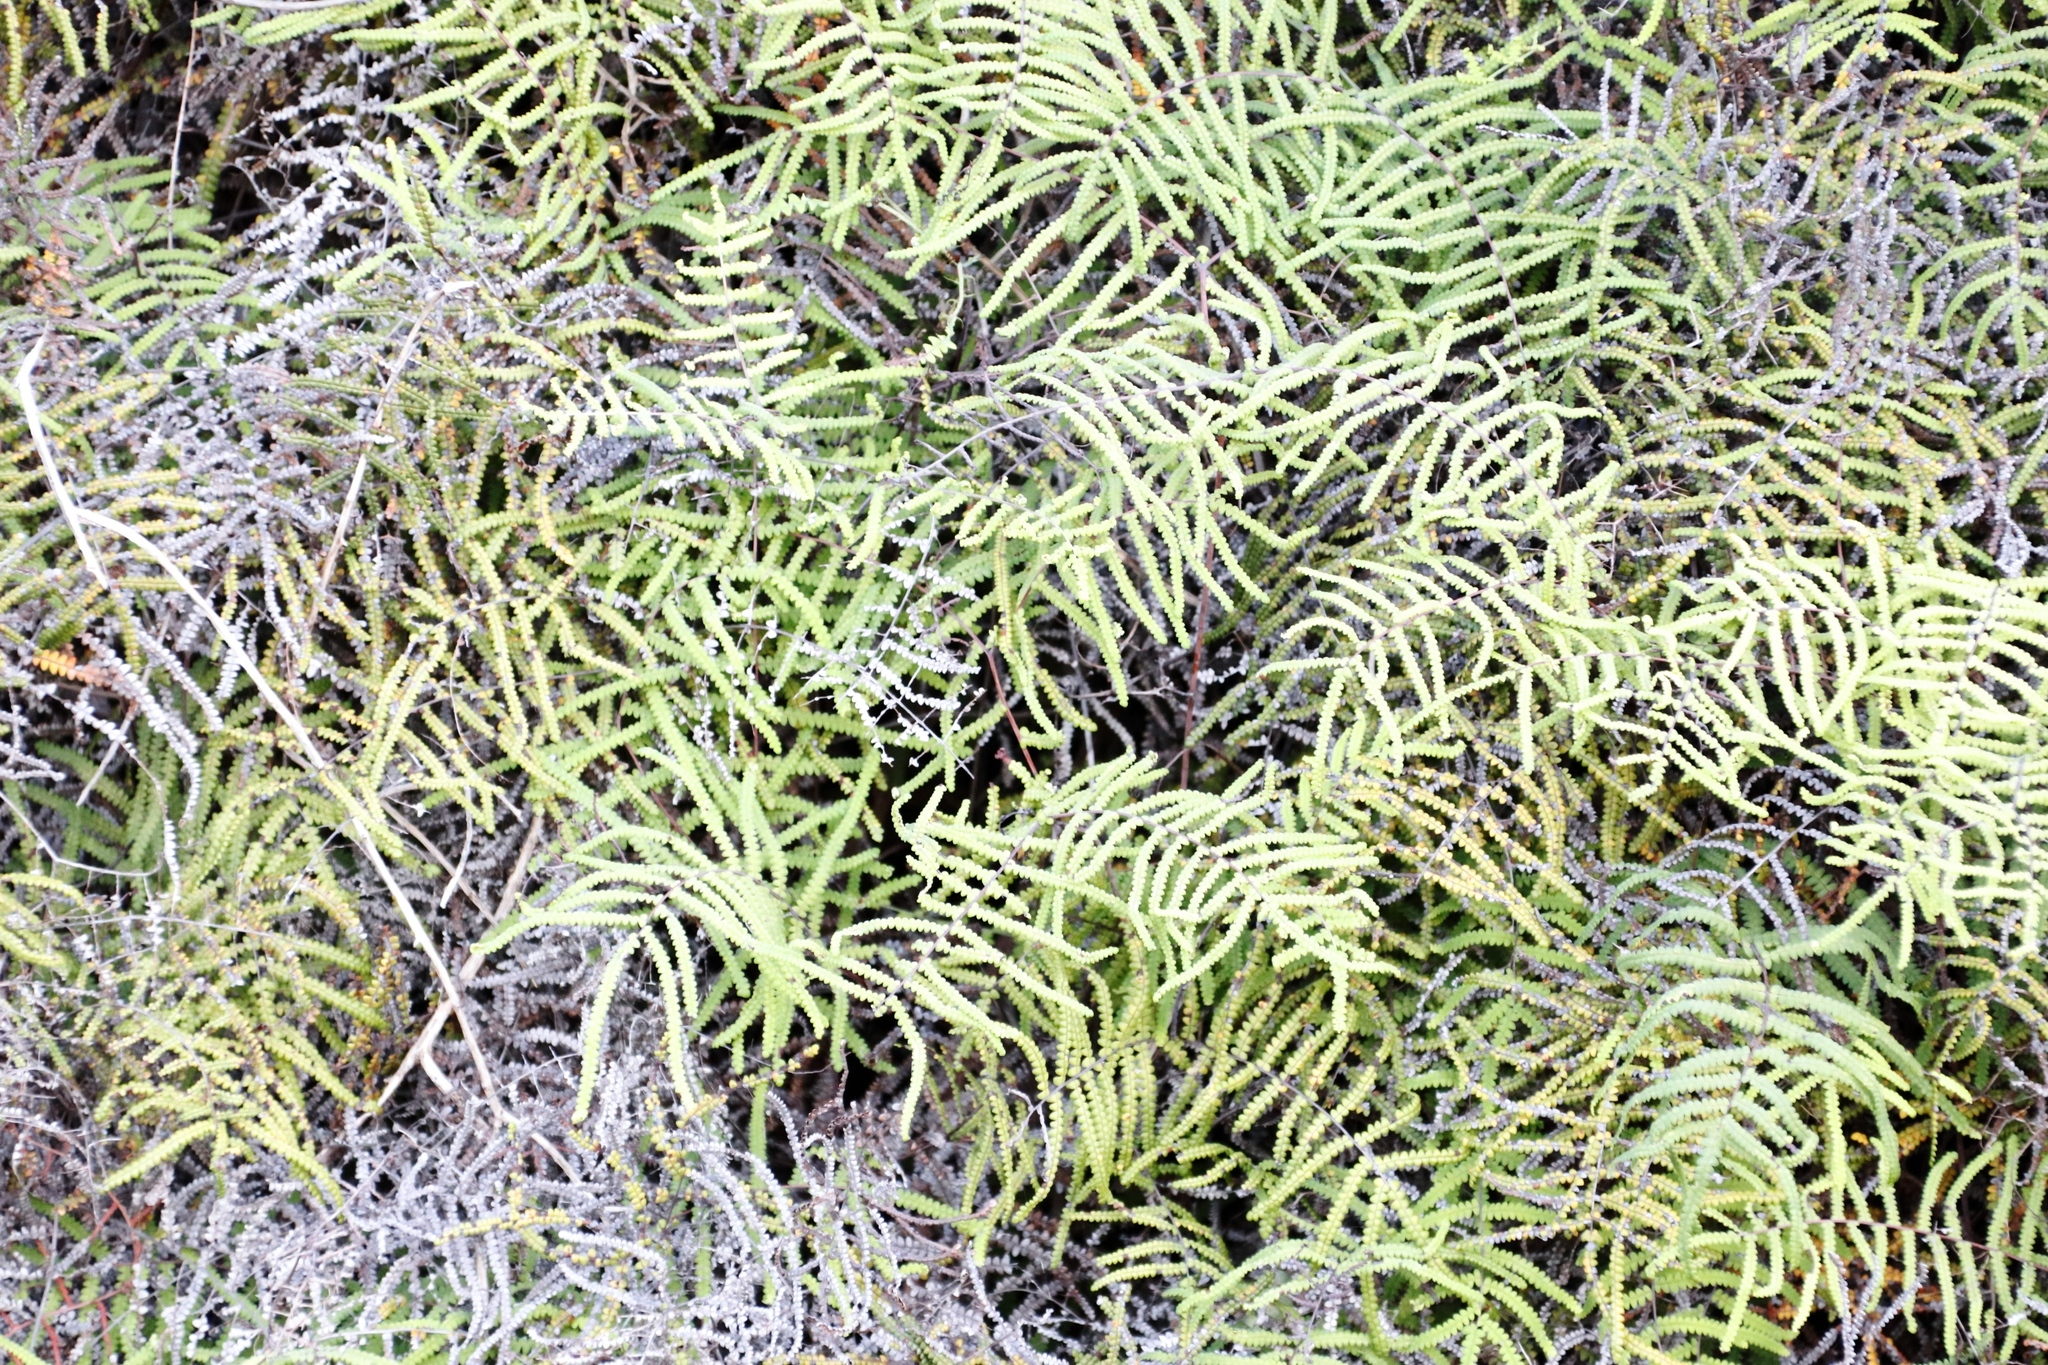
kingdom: Plantae
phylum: Tracheophyta
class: Polypodiopsida
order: Gleicheniales
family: Gleicheniaceae
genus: Gleichenia
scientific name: Gleichenia polypodioides
